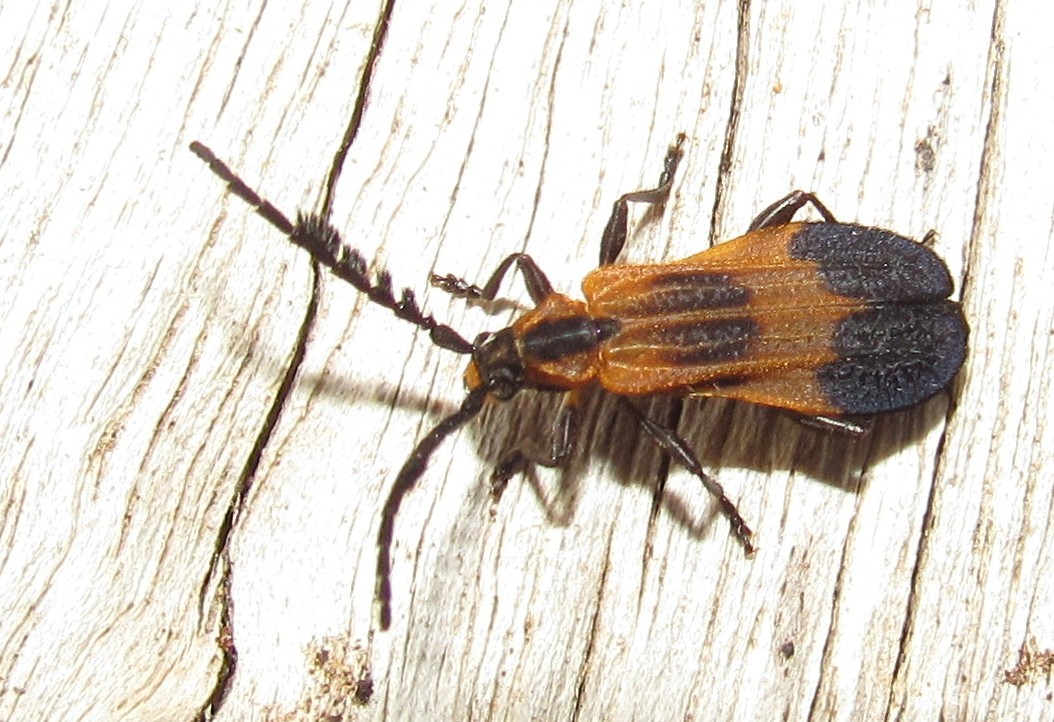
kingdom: Animalia
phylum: Arthropoda
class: Insecta
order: Coleoptera
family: Cerambycidae
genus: Thelgetra
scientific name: Thelgetra adusta
